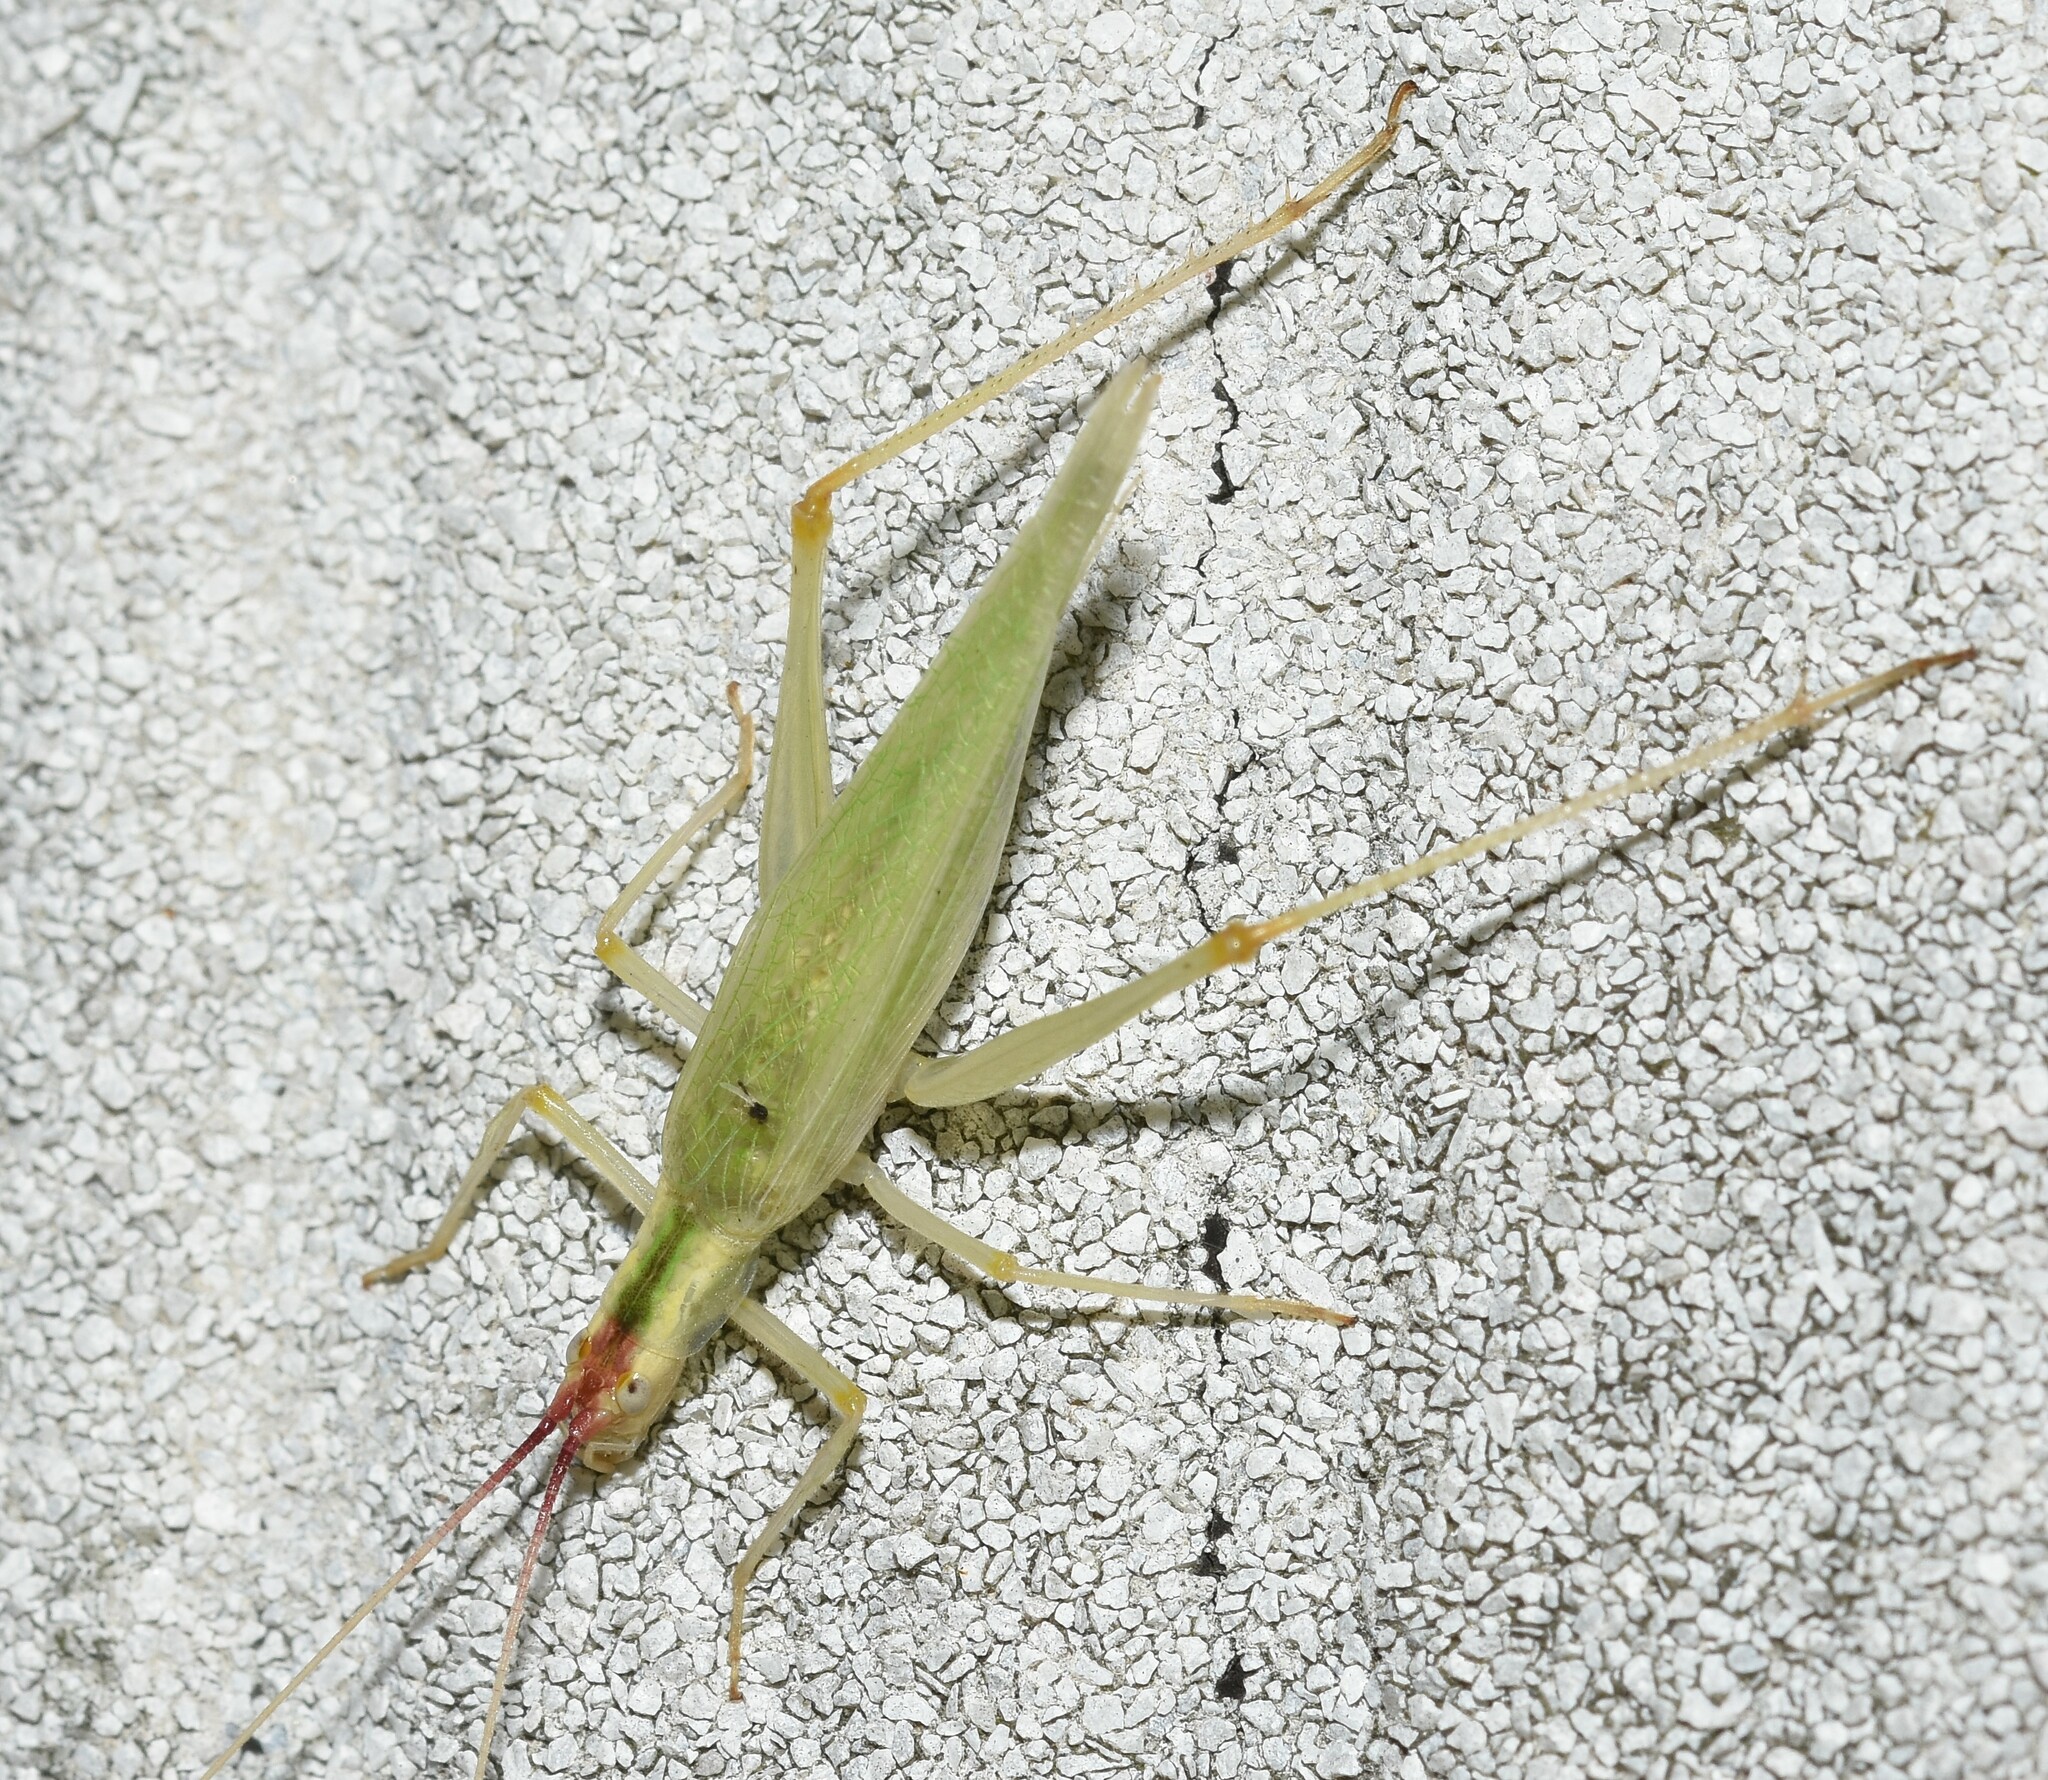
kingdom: Animalia
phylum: Arthropoda
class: Insecta
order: Orthoptera
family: Gryllidae
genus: Oecanthus
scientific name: Oecanthus latipennis
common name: Broad-winged tree cricket
